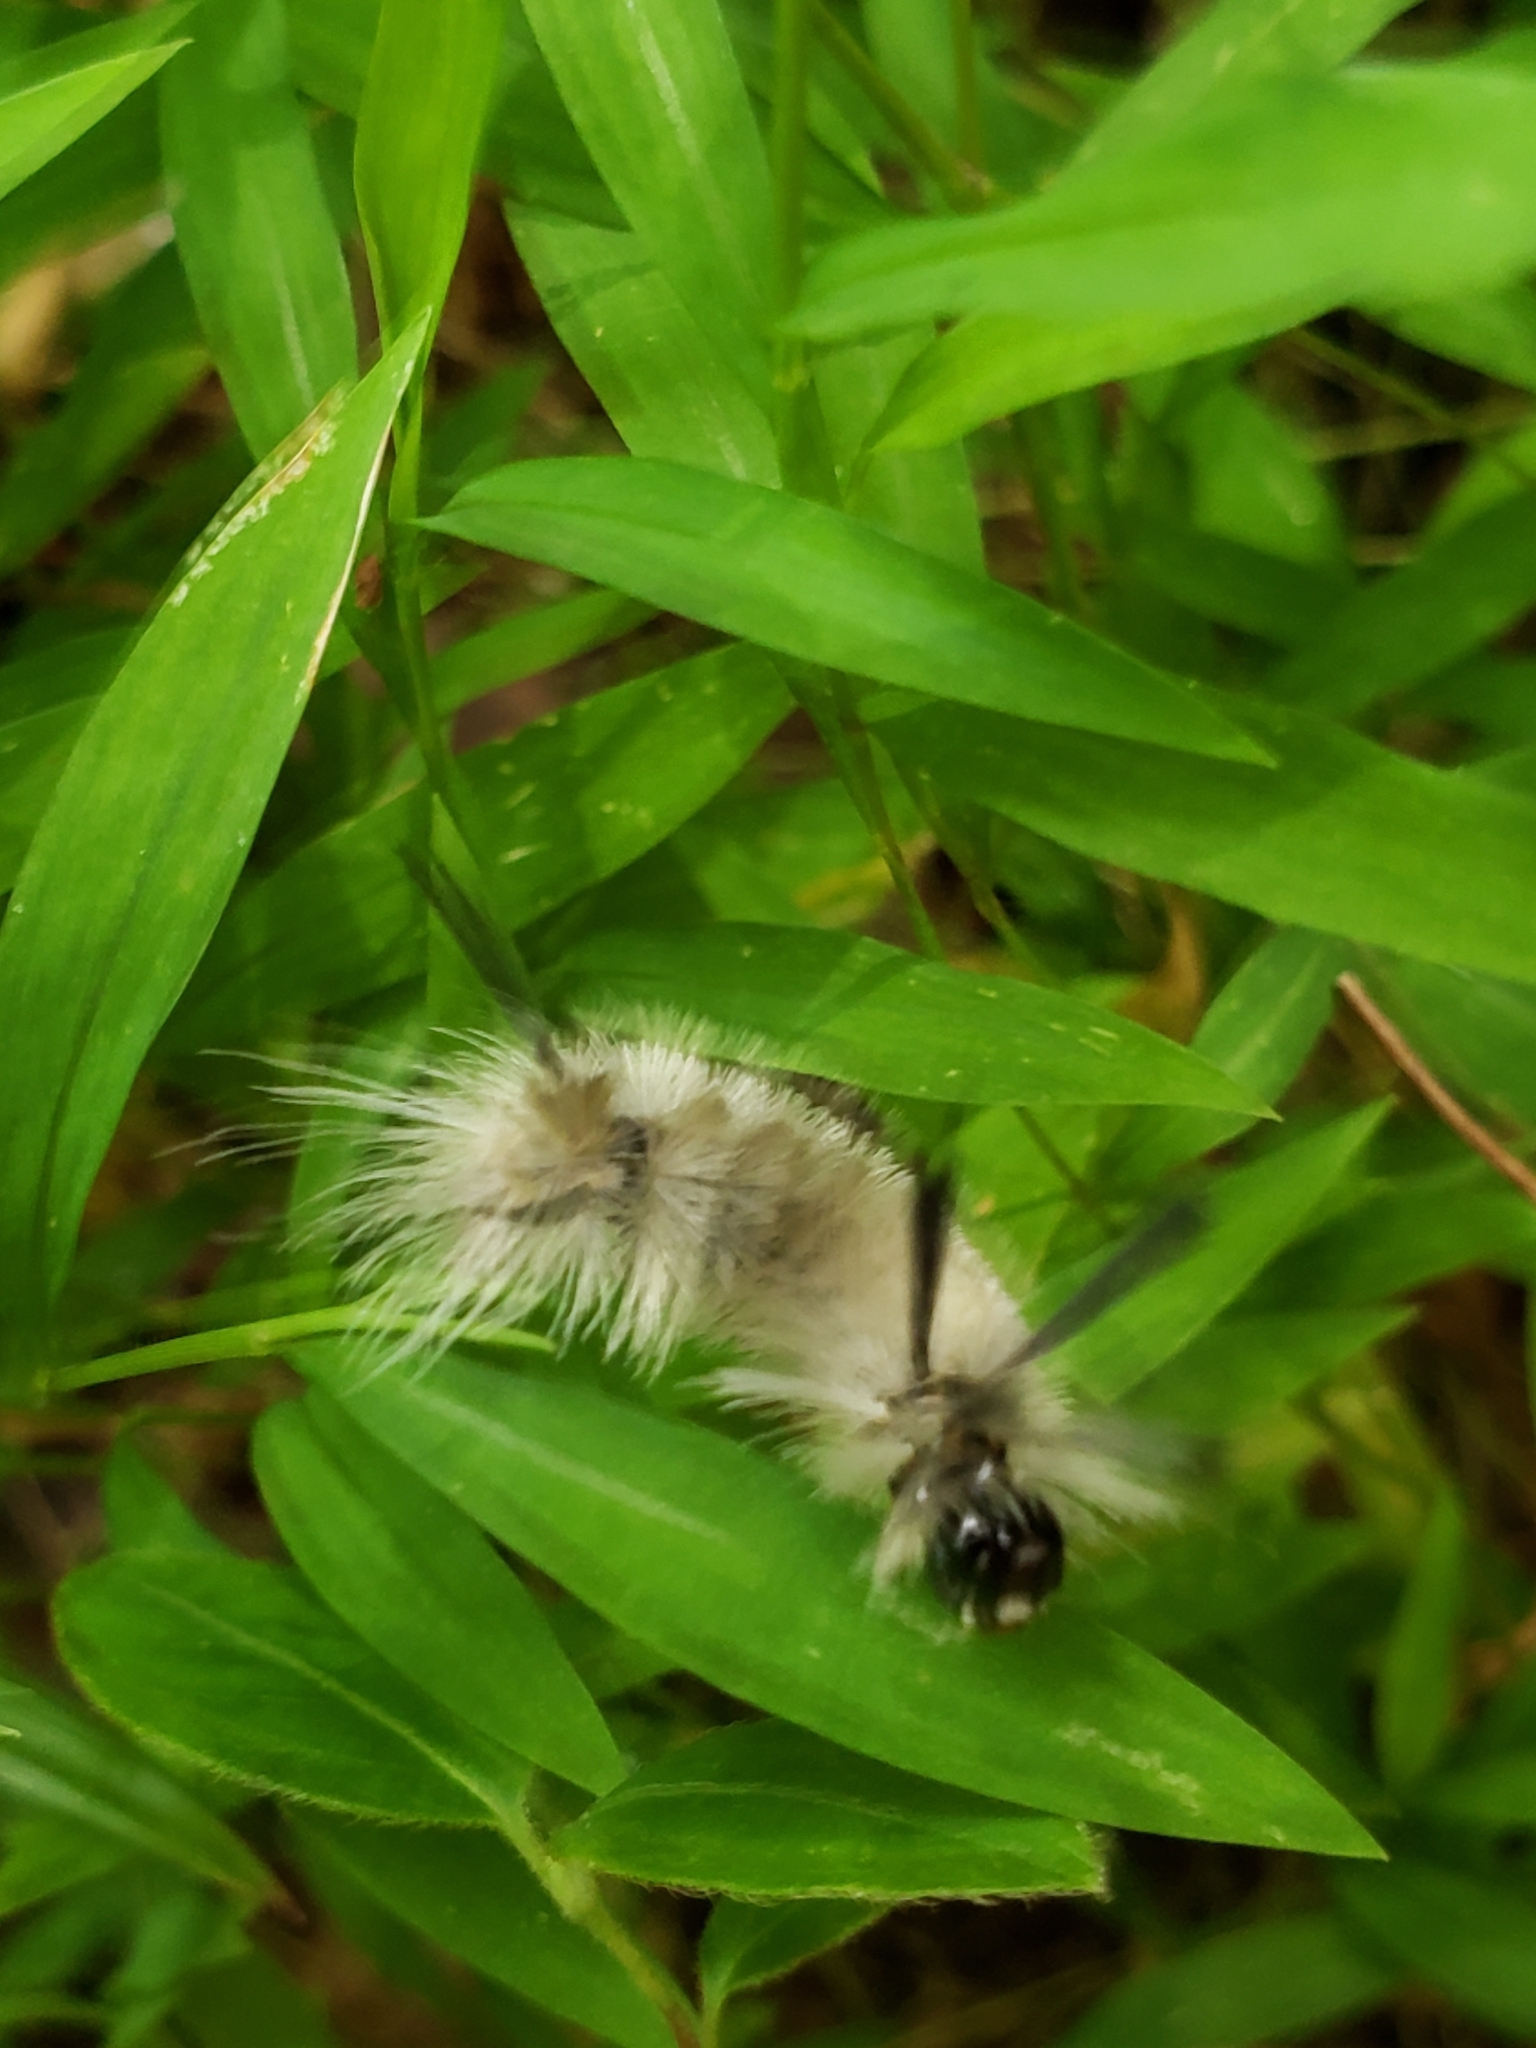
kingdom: Animalia
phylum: Arthropoda
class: Insecta
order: Lepidoptera
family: Erebidae
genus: Halysidota
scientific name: Halysidota tessellaris
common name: Banded tussock moth
